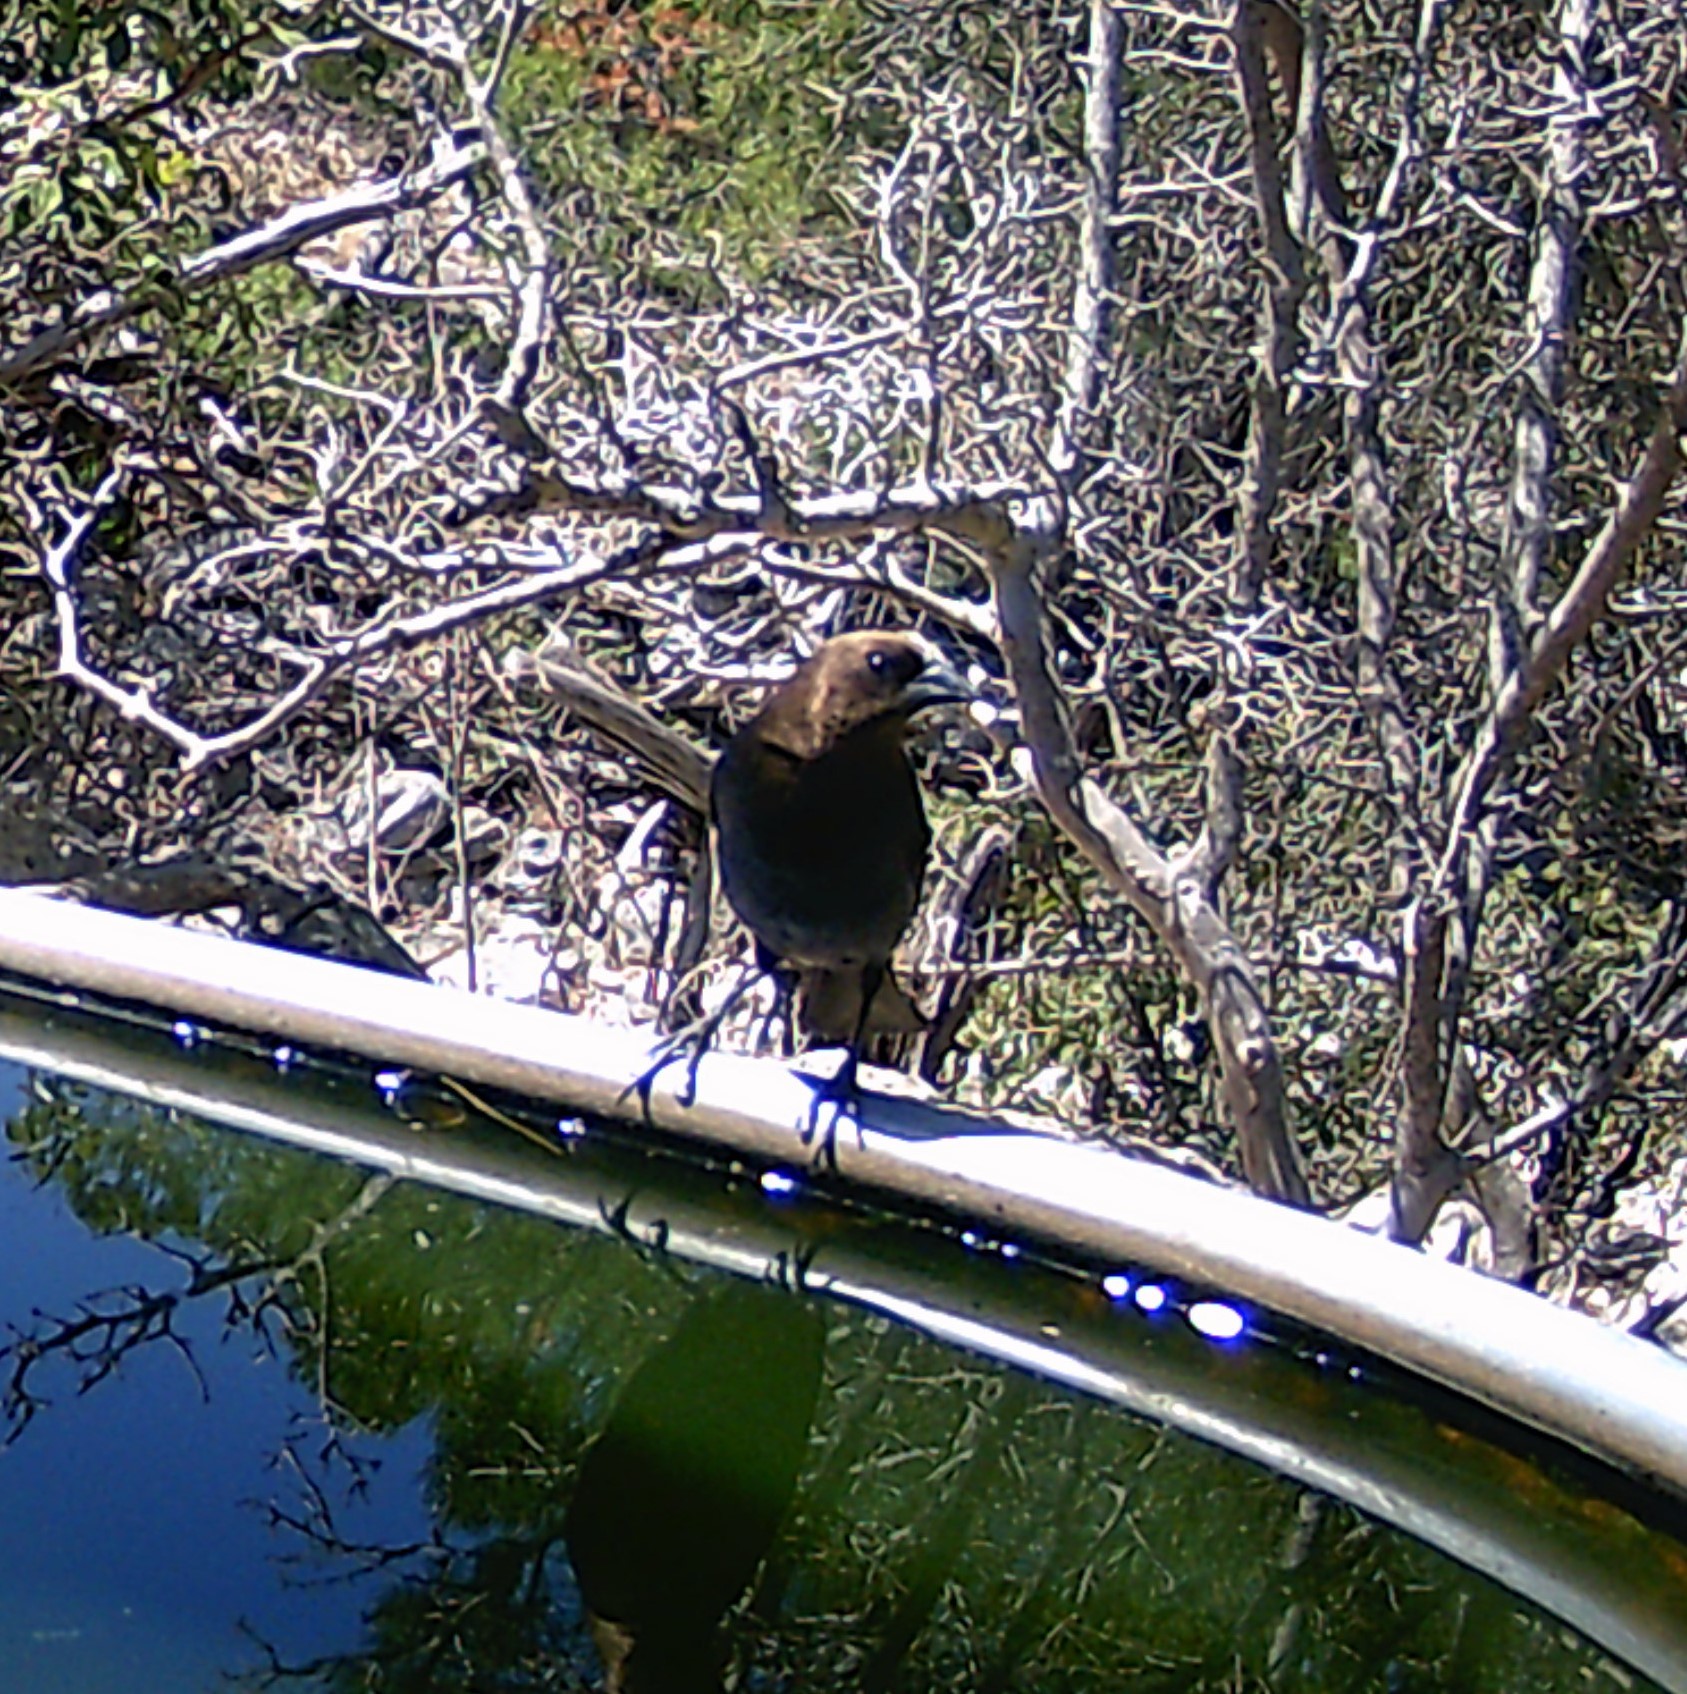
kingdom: Animalia
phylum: Chordata
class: Aves
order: Passeriformes
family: Icteridae
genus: Molothrus
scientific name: Molothrus ater
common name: Brown-headed cowbird
